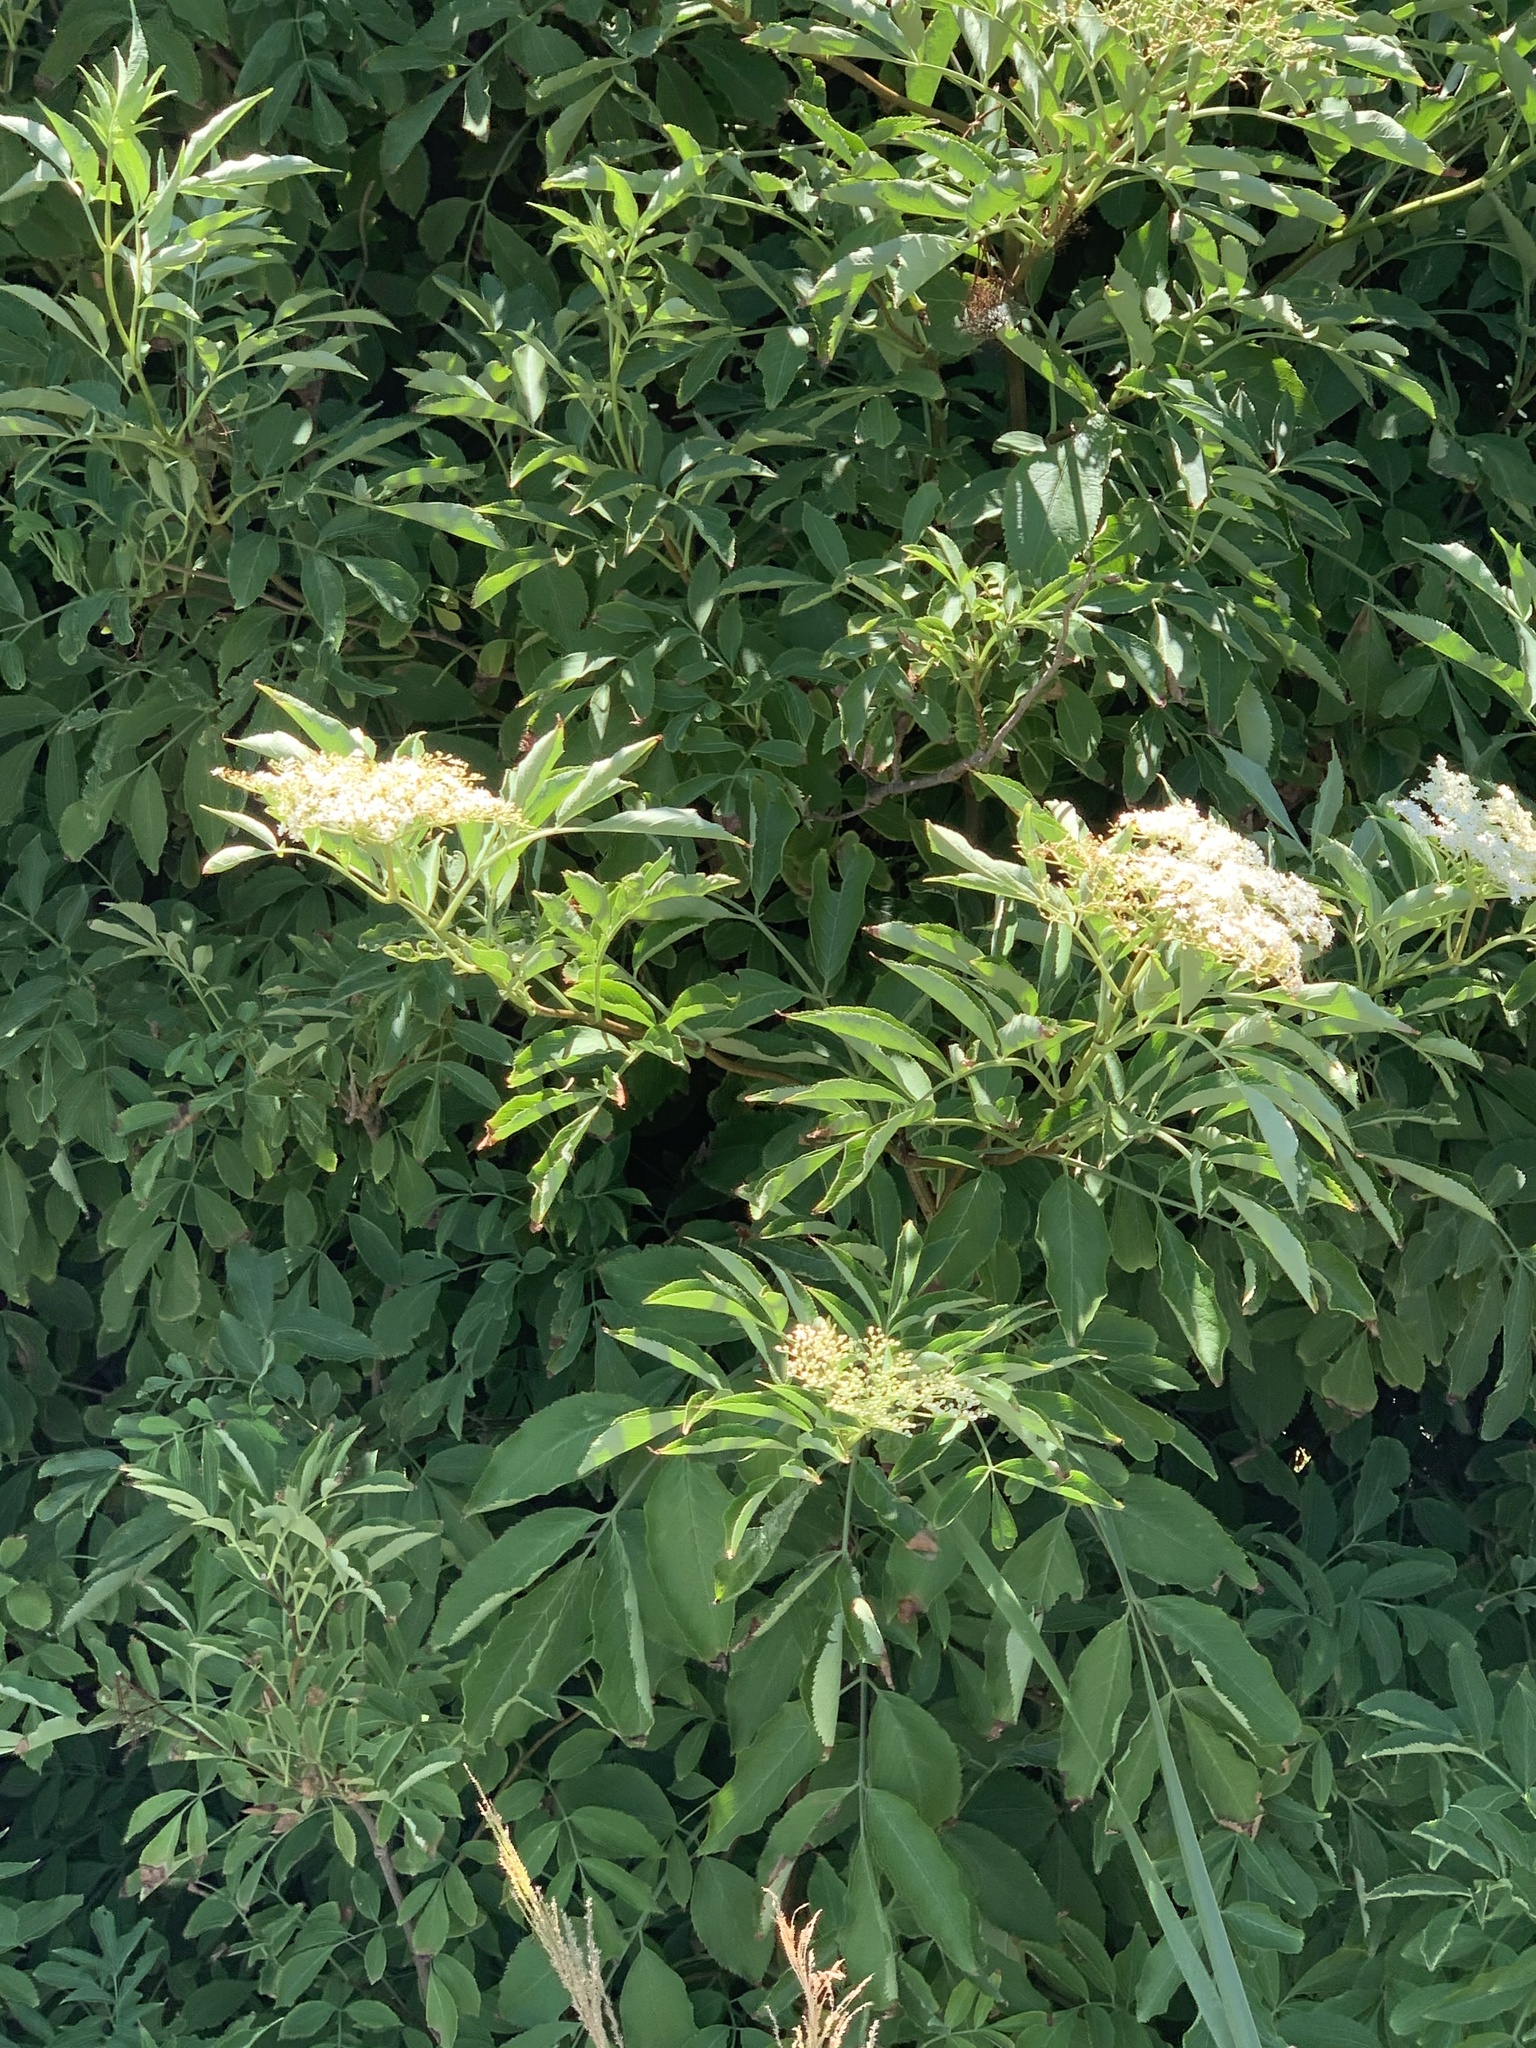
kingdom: Plantae
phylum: Tracheophyta
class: Magnoliopsida
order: Dipsacales
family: Viburnaceae
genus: Sambucus
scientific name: Sambucus nigra
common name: Elder
